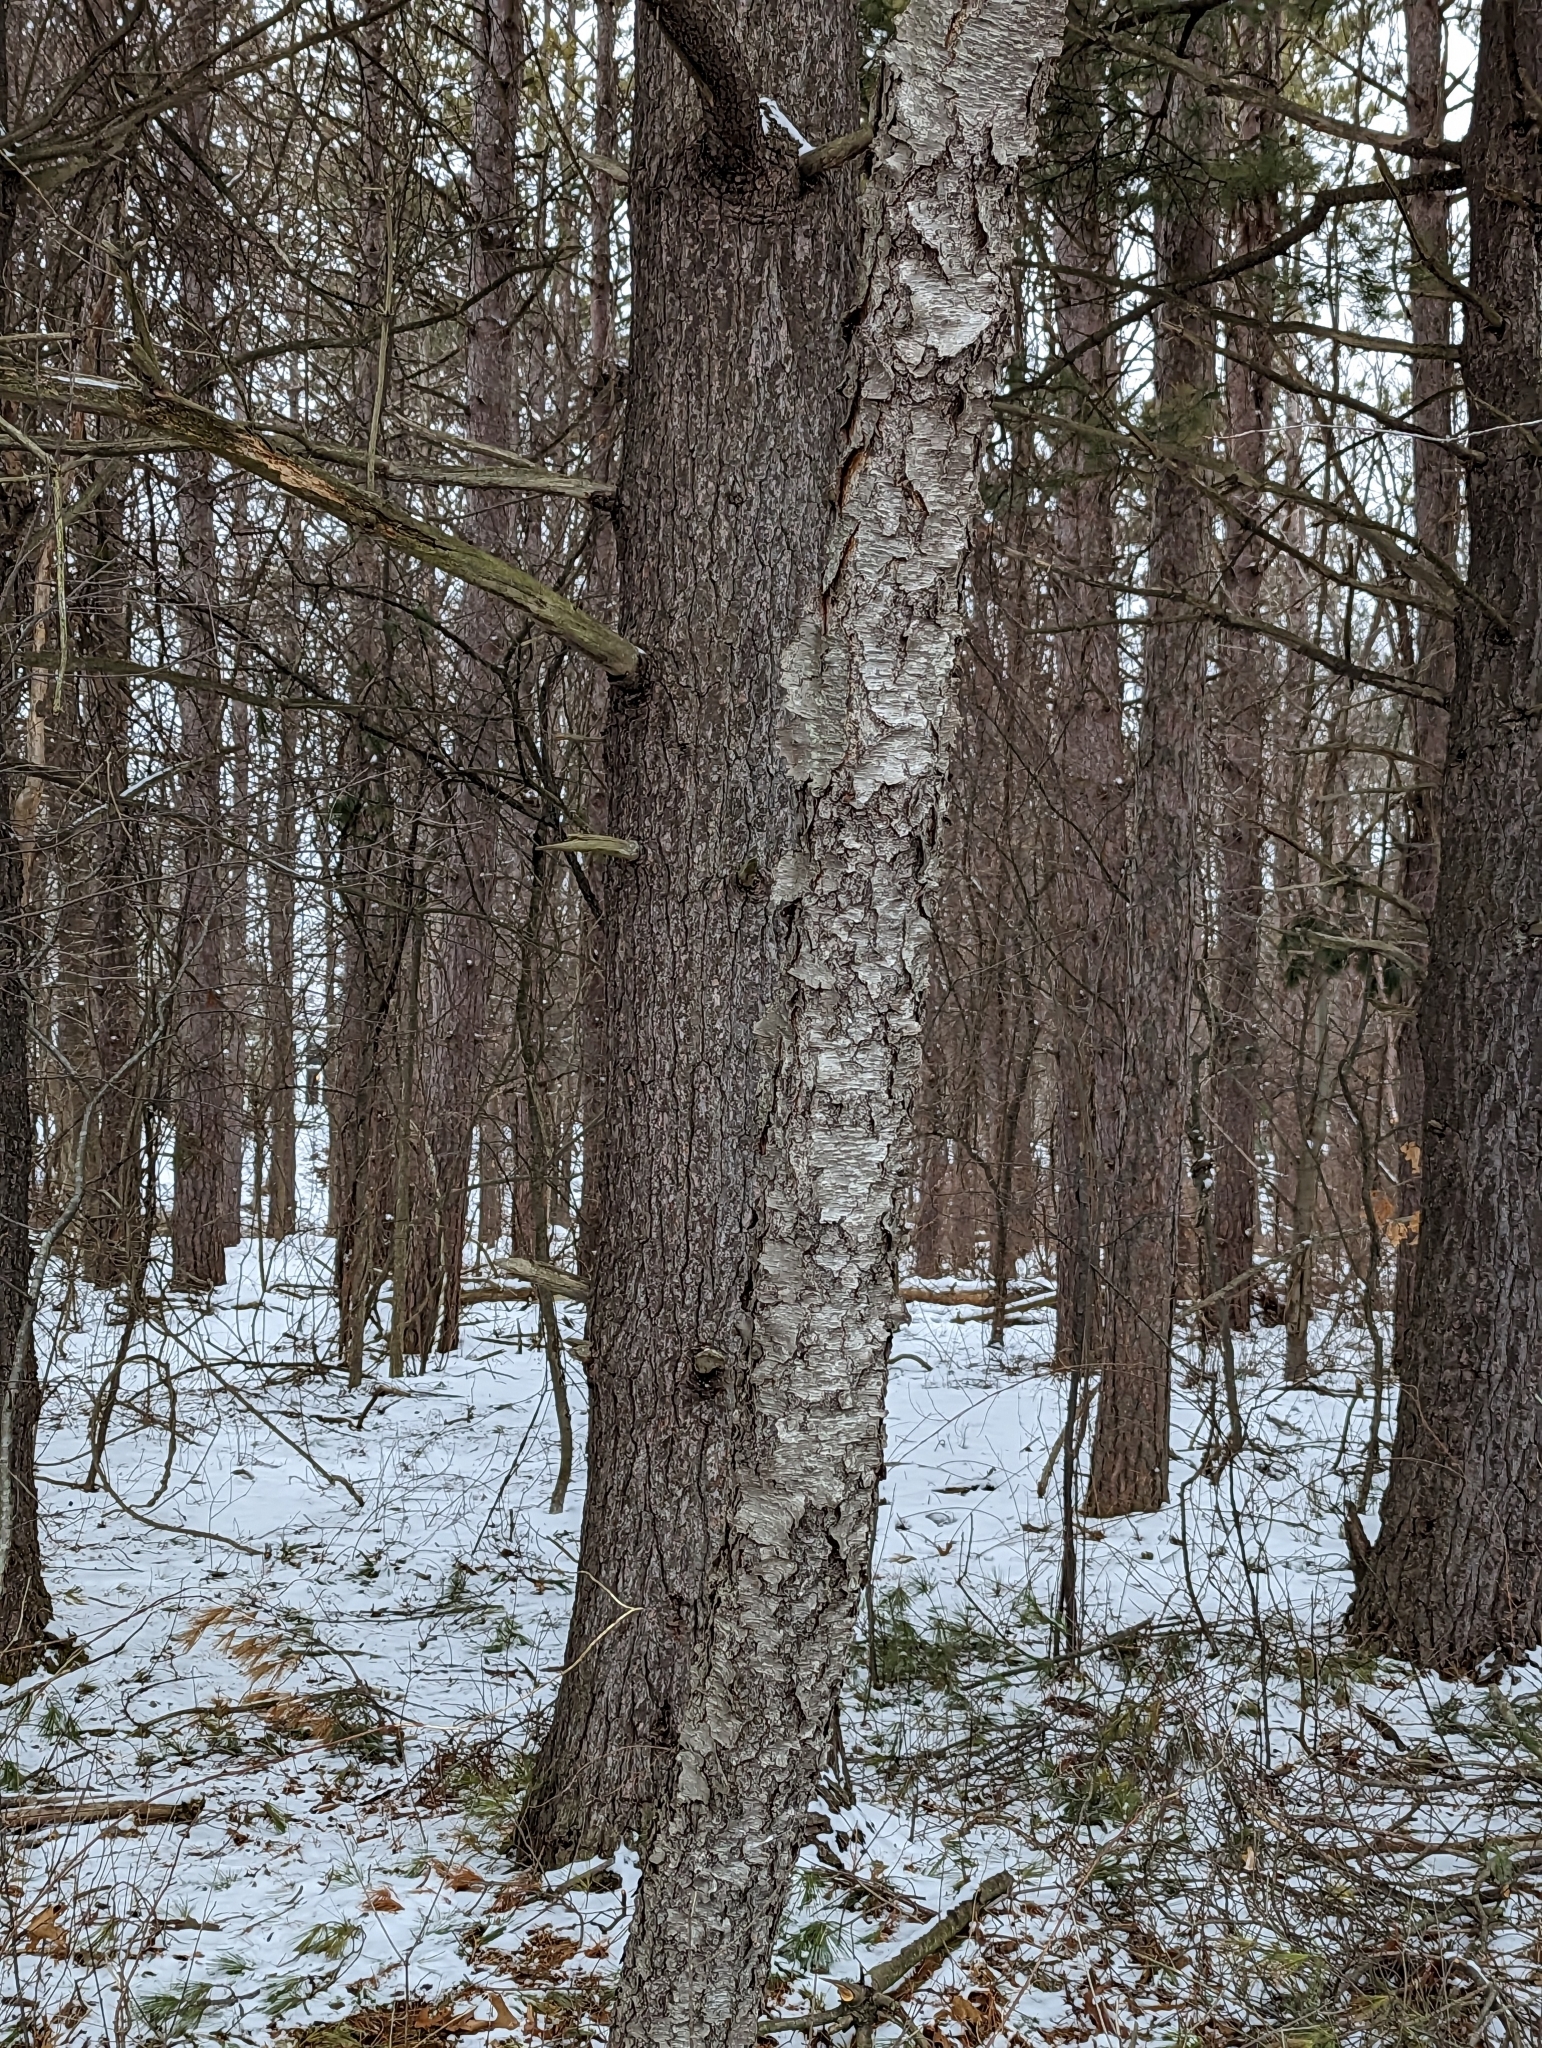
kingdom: Plantae
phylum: Tracheophyta
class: Magnoliopsida
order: Rosales
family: Rosaceae
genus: Prunus
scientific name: Prunus serotina
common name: Black cherry
